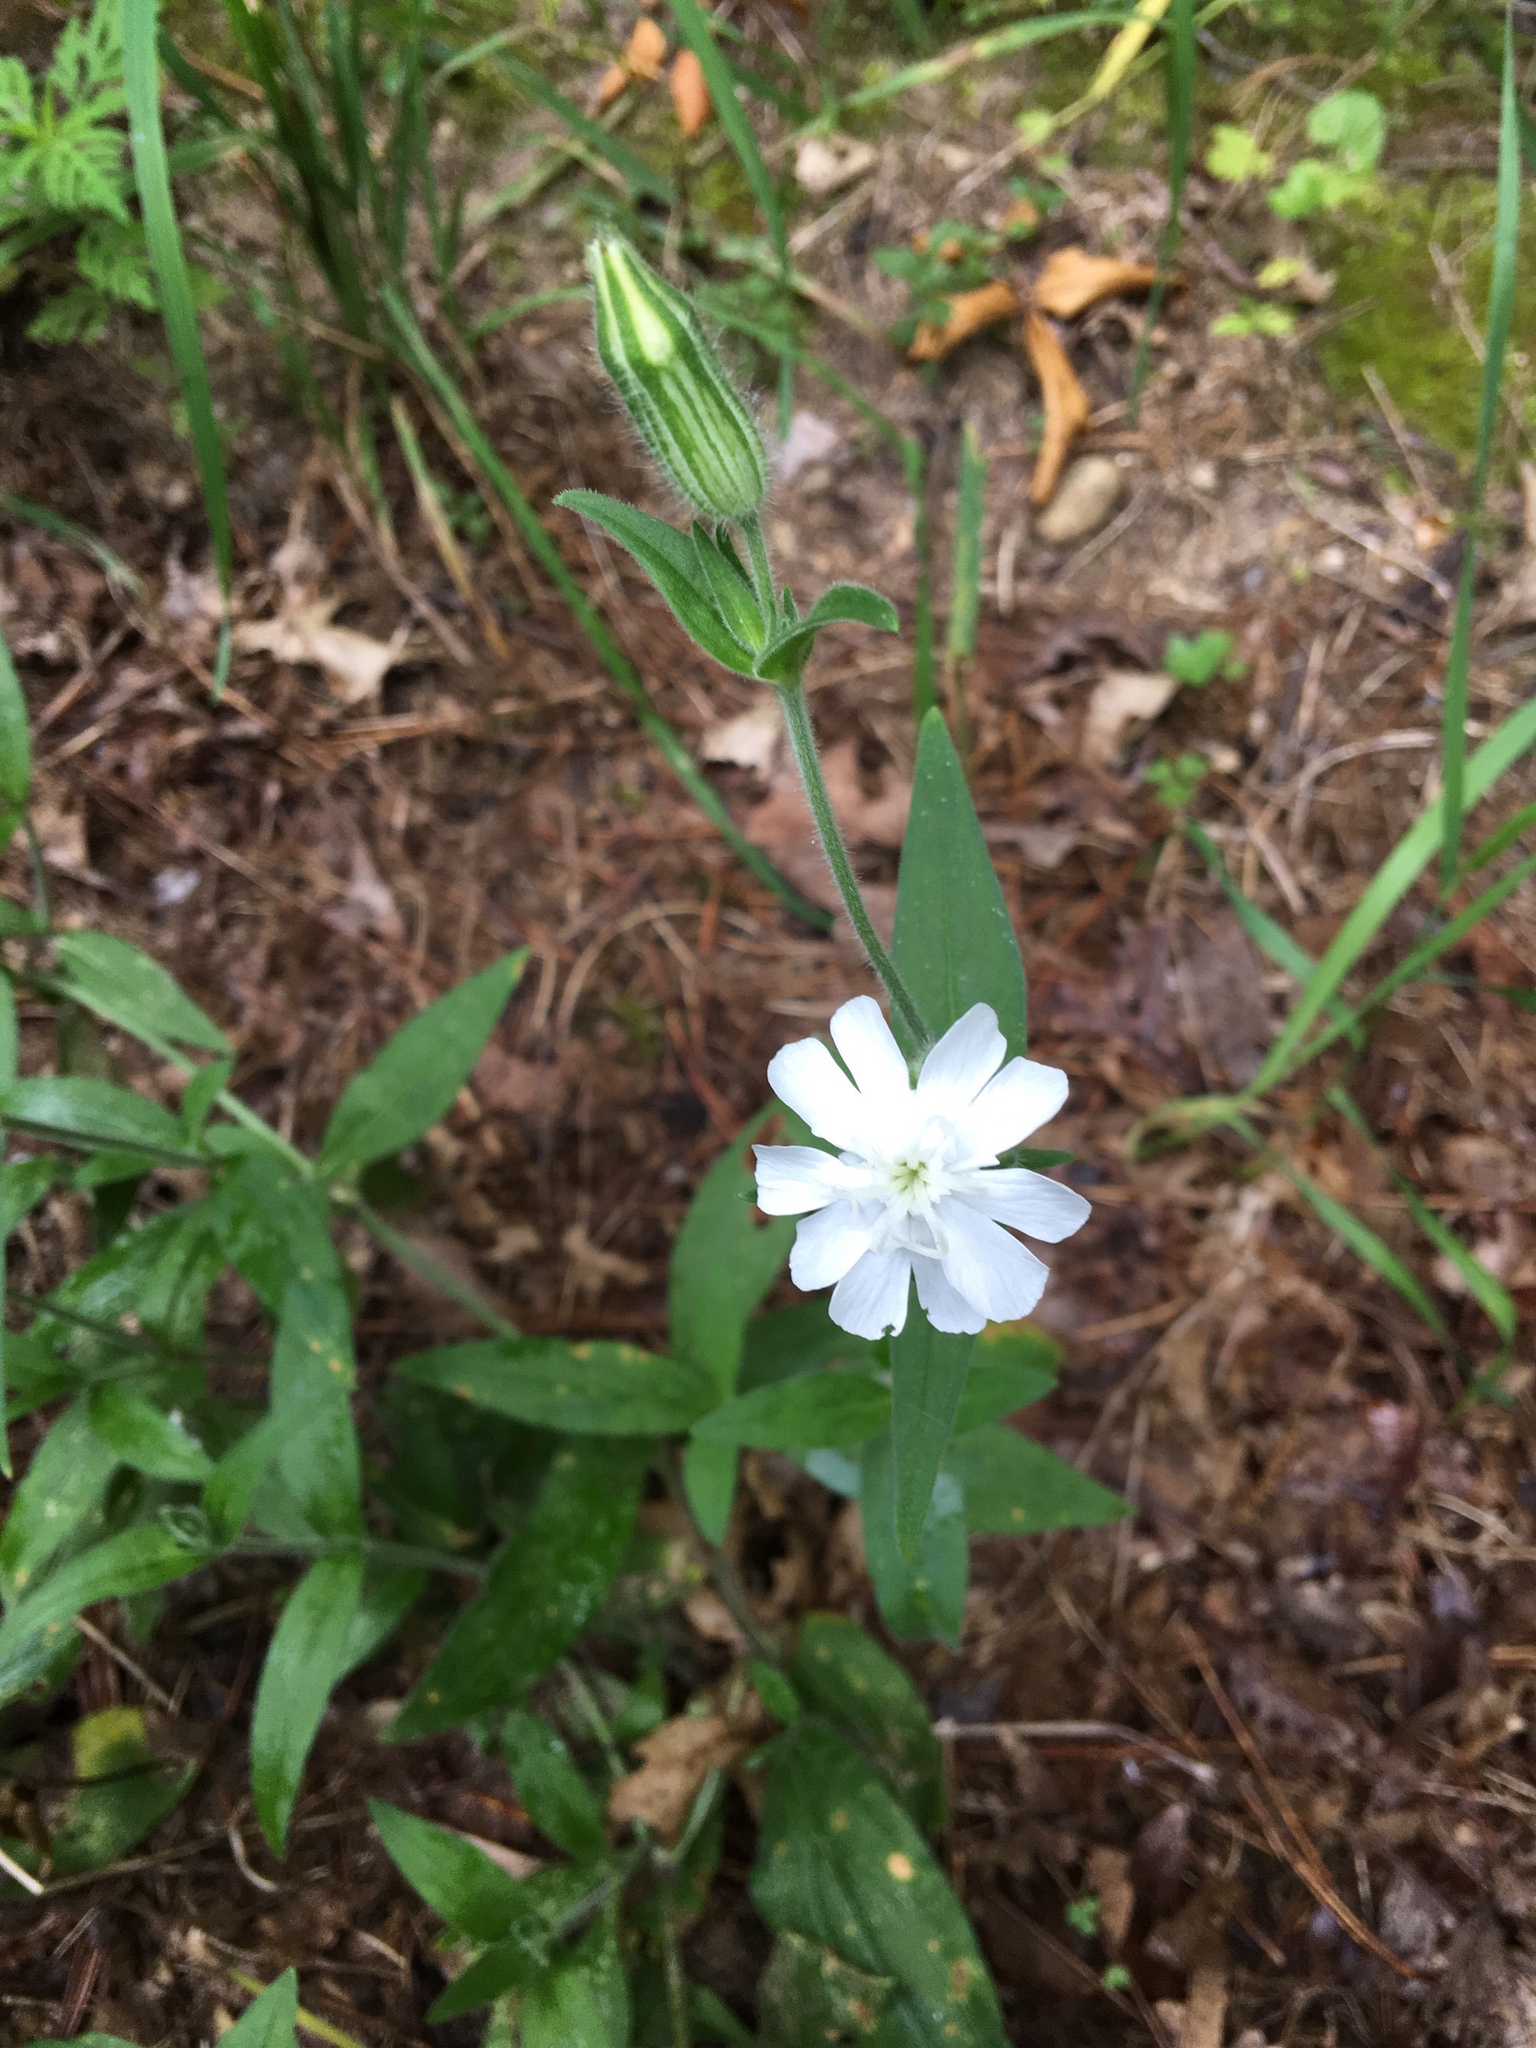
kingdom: Plantae
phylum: Tracheophyta
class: Magnoliopsida
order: Caryophyllales
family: Caryophyllaceae
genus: Silene
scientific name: Silene latifolia
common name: White campion
